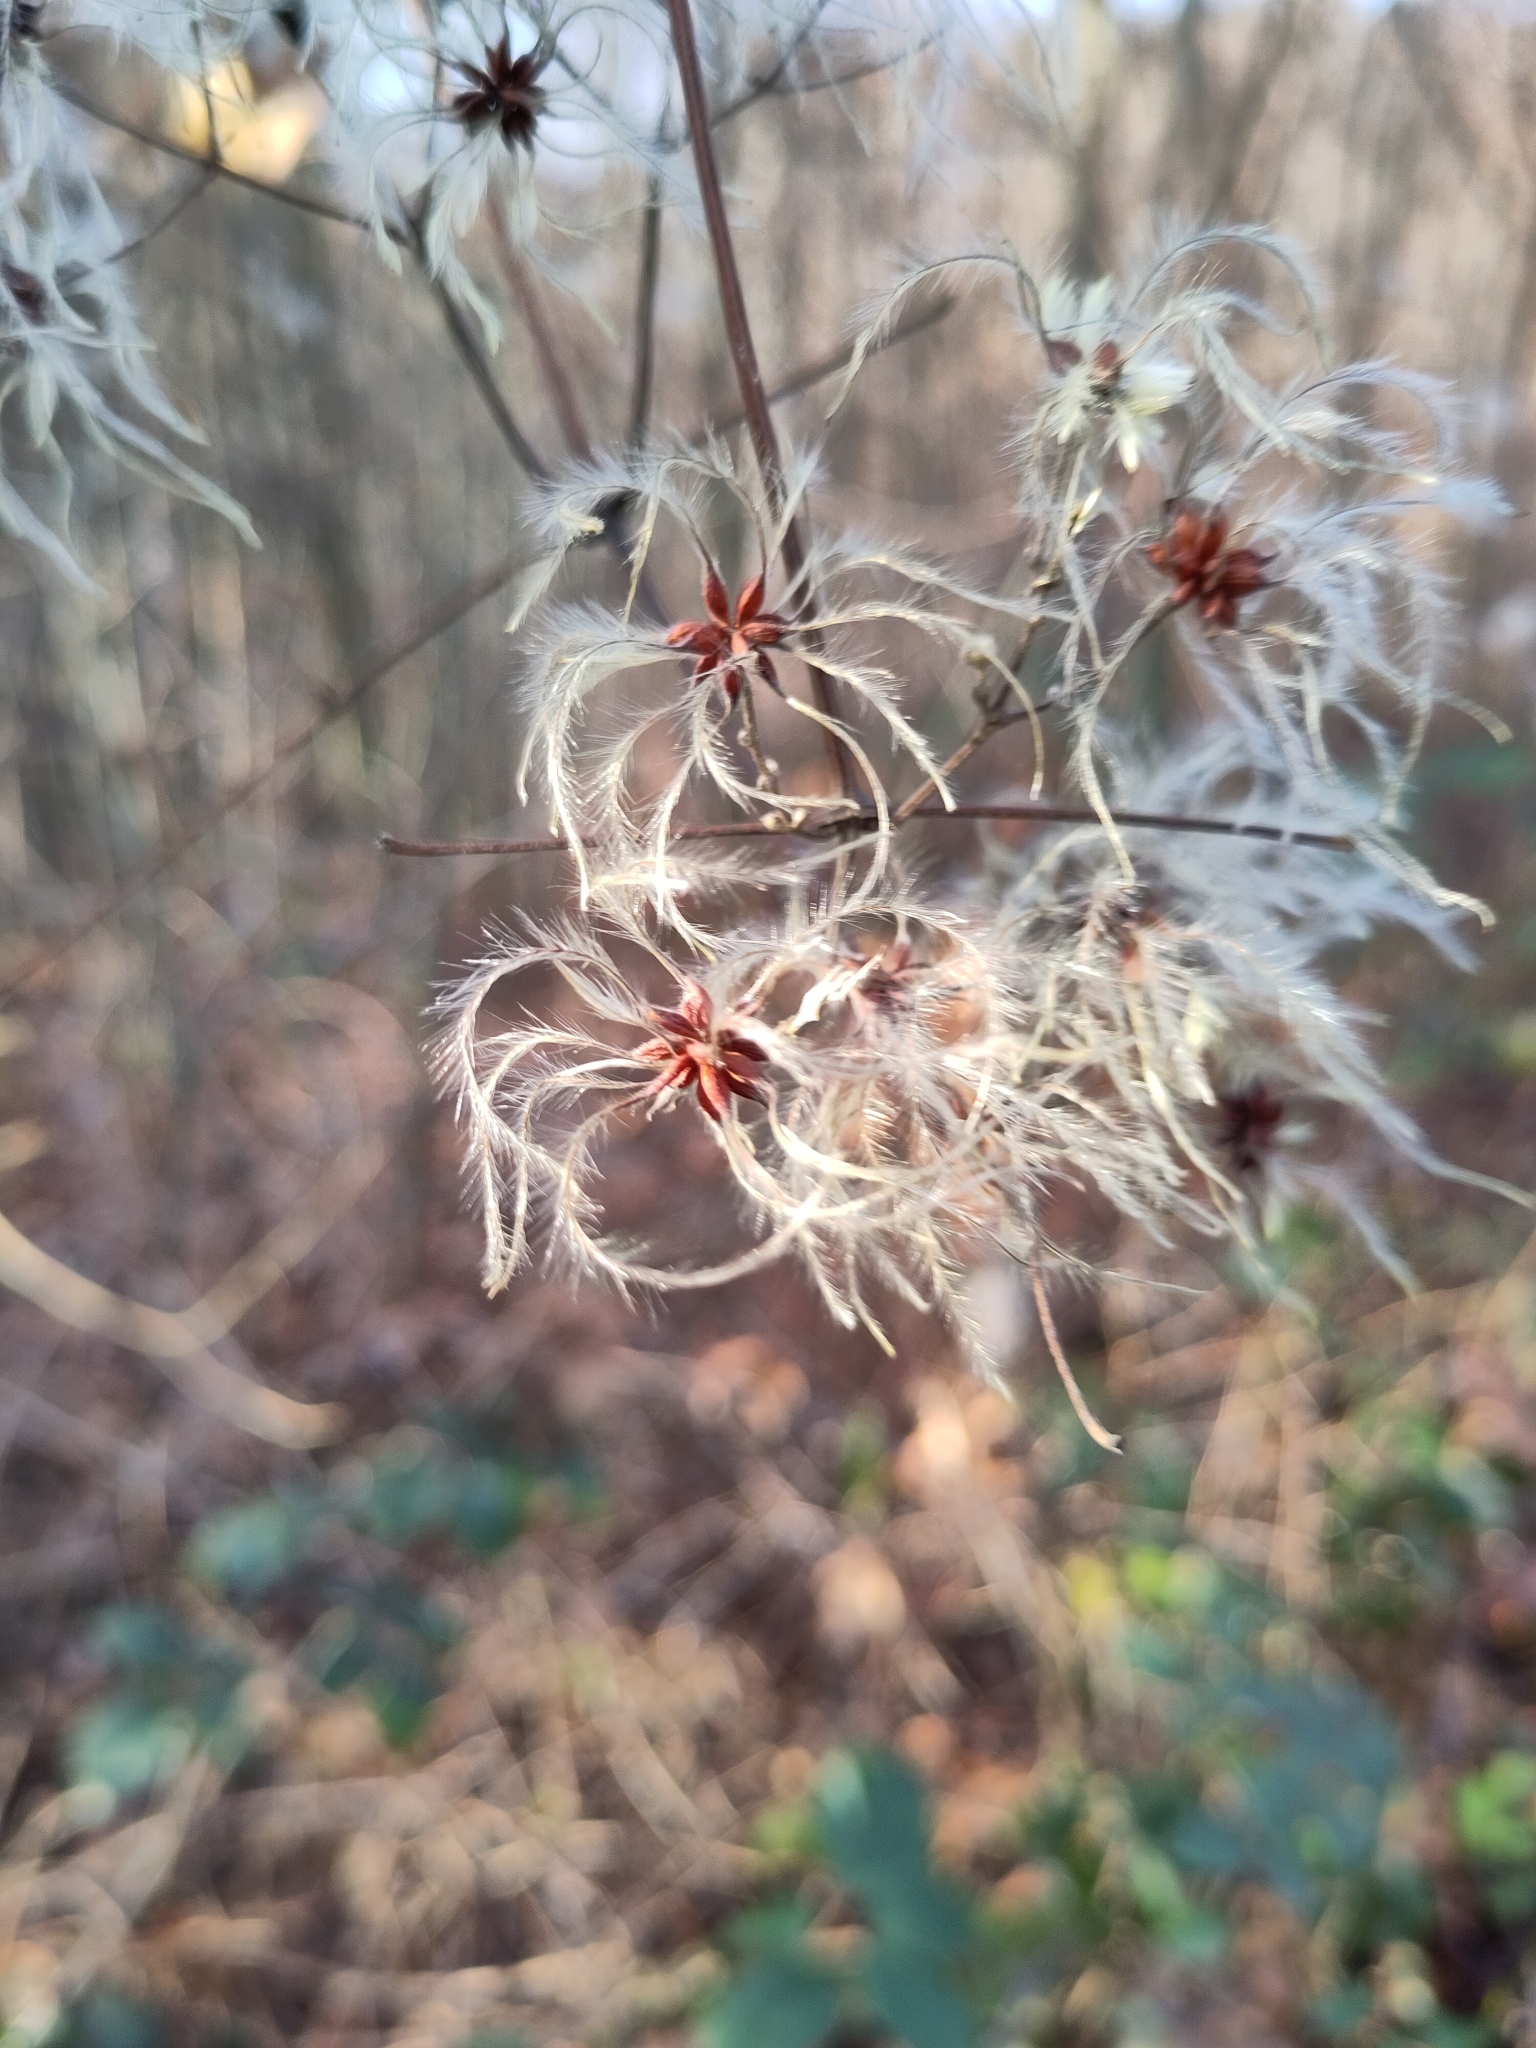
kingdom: Plantae
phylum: Tracheophyta
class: Magnoliopsida
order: Ranunculales
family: Ranunculaceae
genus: Clematis
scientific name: Clematis vitalba
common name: Evergreen clematis
